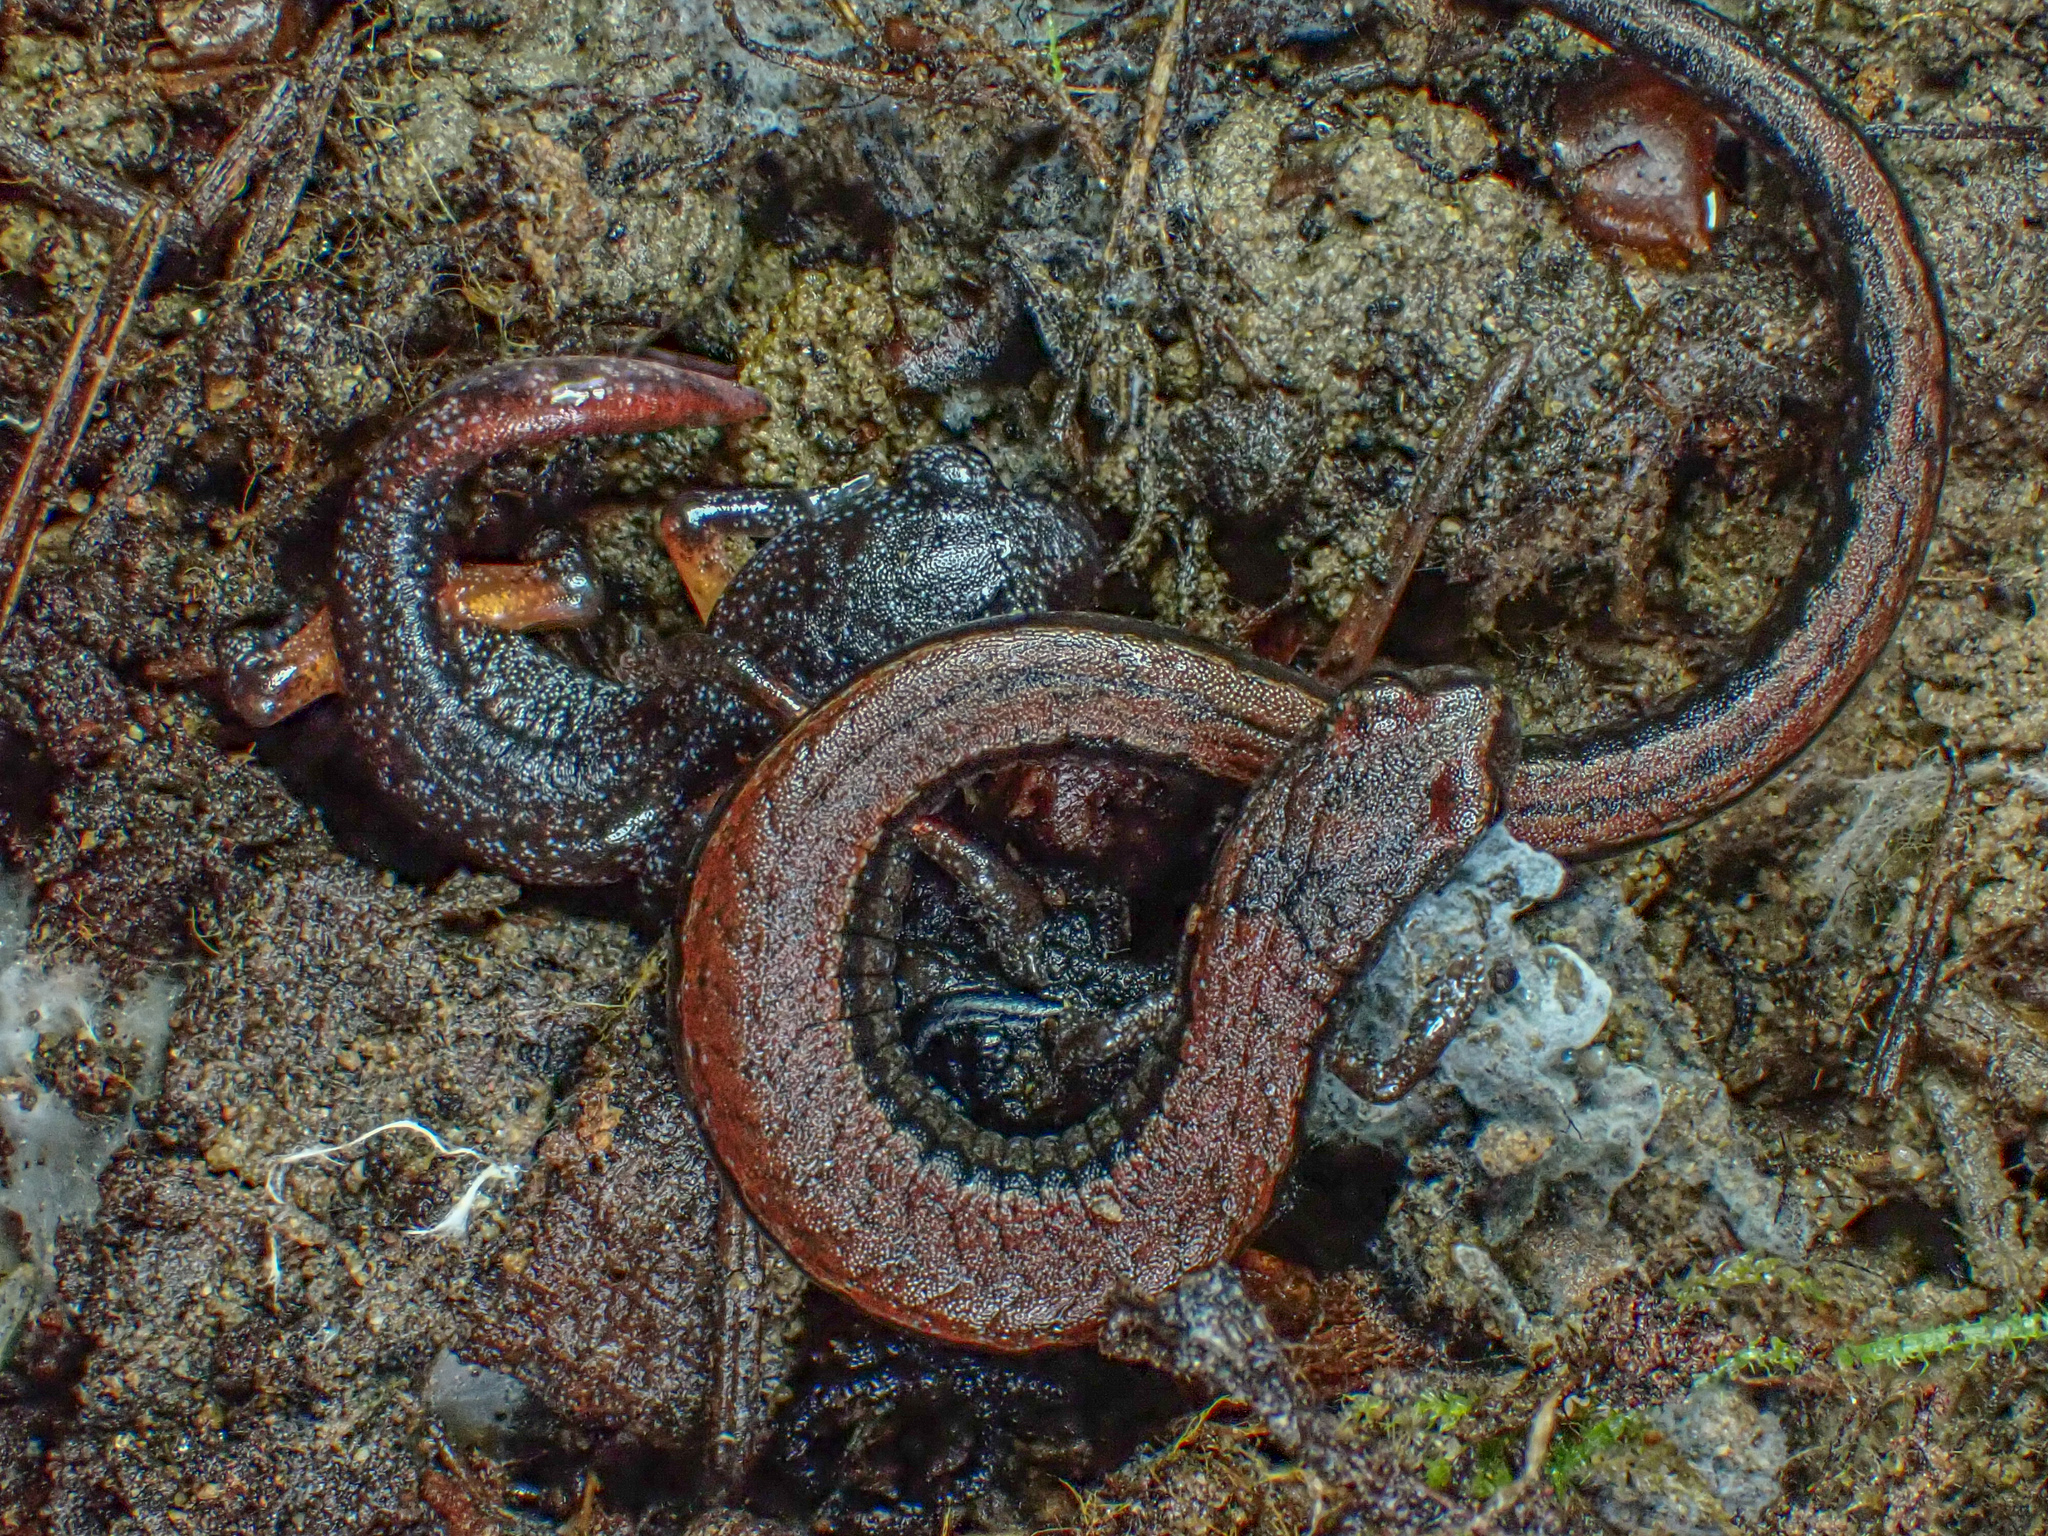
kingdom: Animalia
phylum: Chordata
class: Amphibia
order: Caudata
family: Plethodontidae
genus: Batrachoseps
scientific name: Batrachoseps attenuatus
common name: California slender salamander
